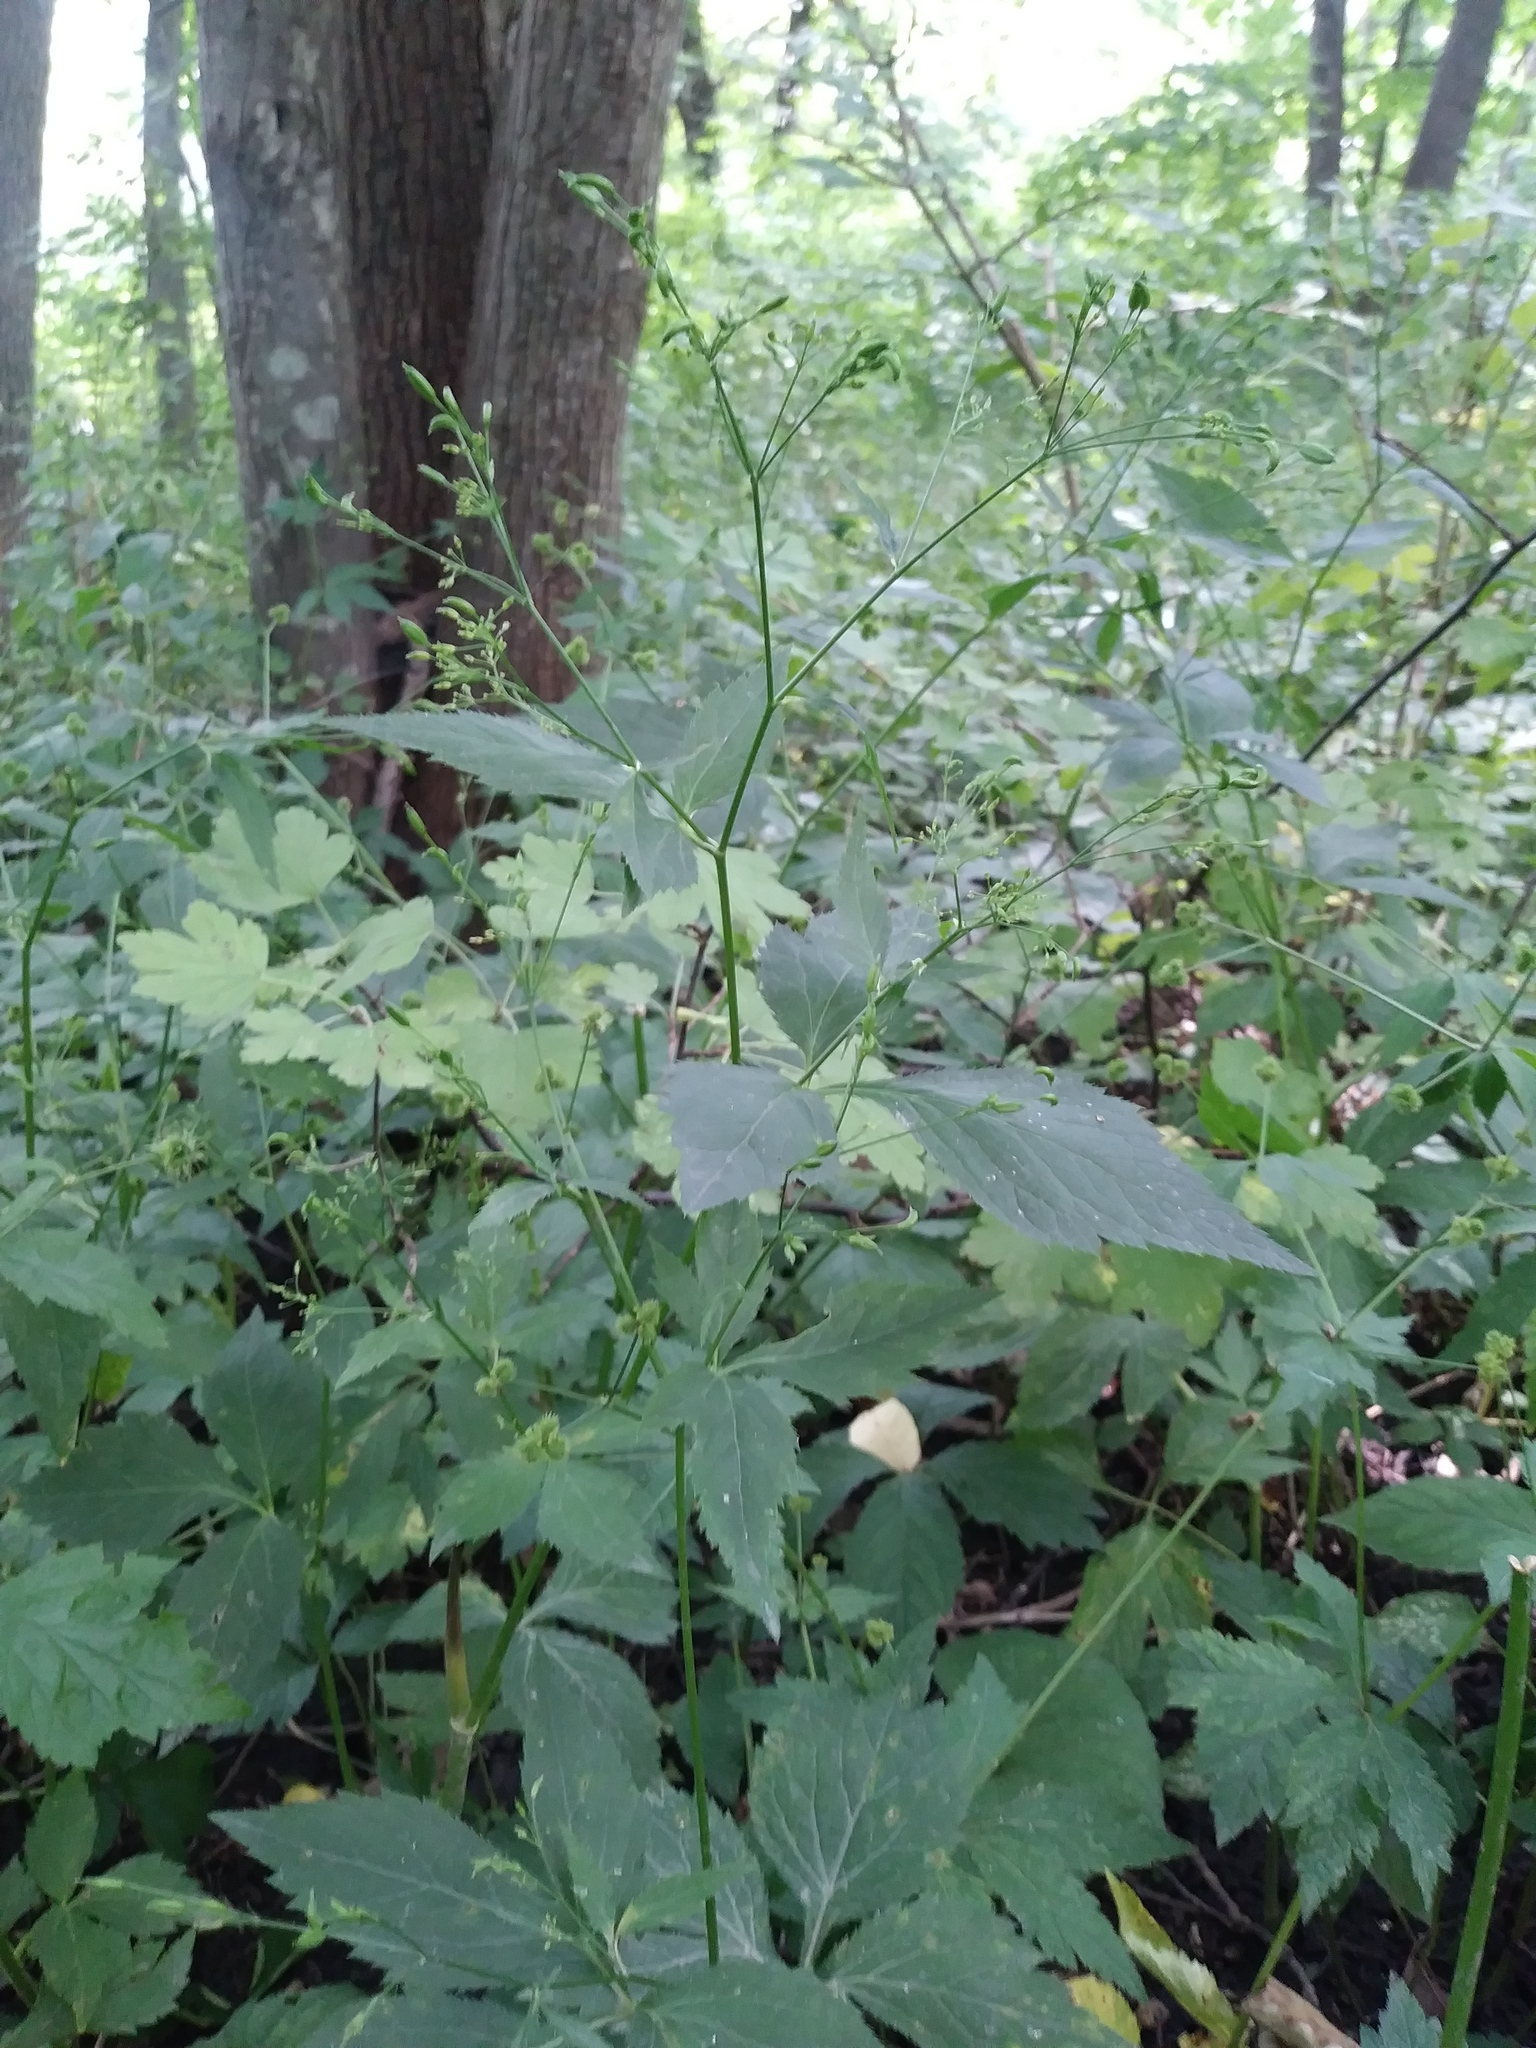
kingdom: Plantae
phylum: Tracheophyta
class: Magnoliopsida
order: Apiales
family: Apiaceae
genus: Cryptotaenia
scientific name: Cryptotaenia canadensis
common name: Honewort
